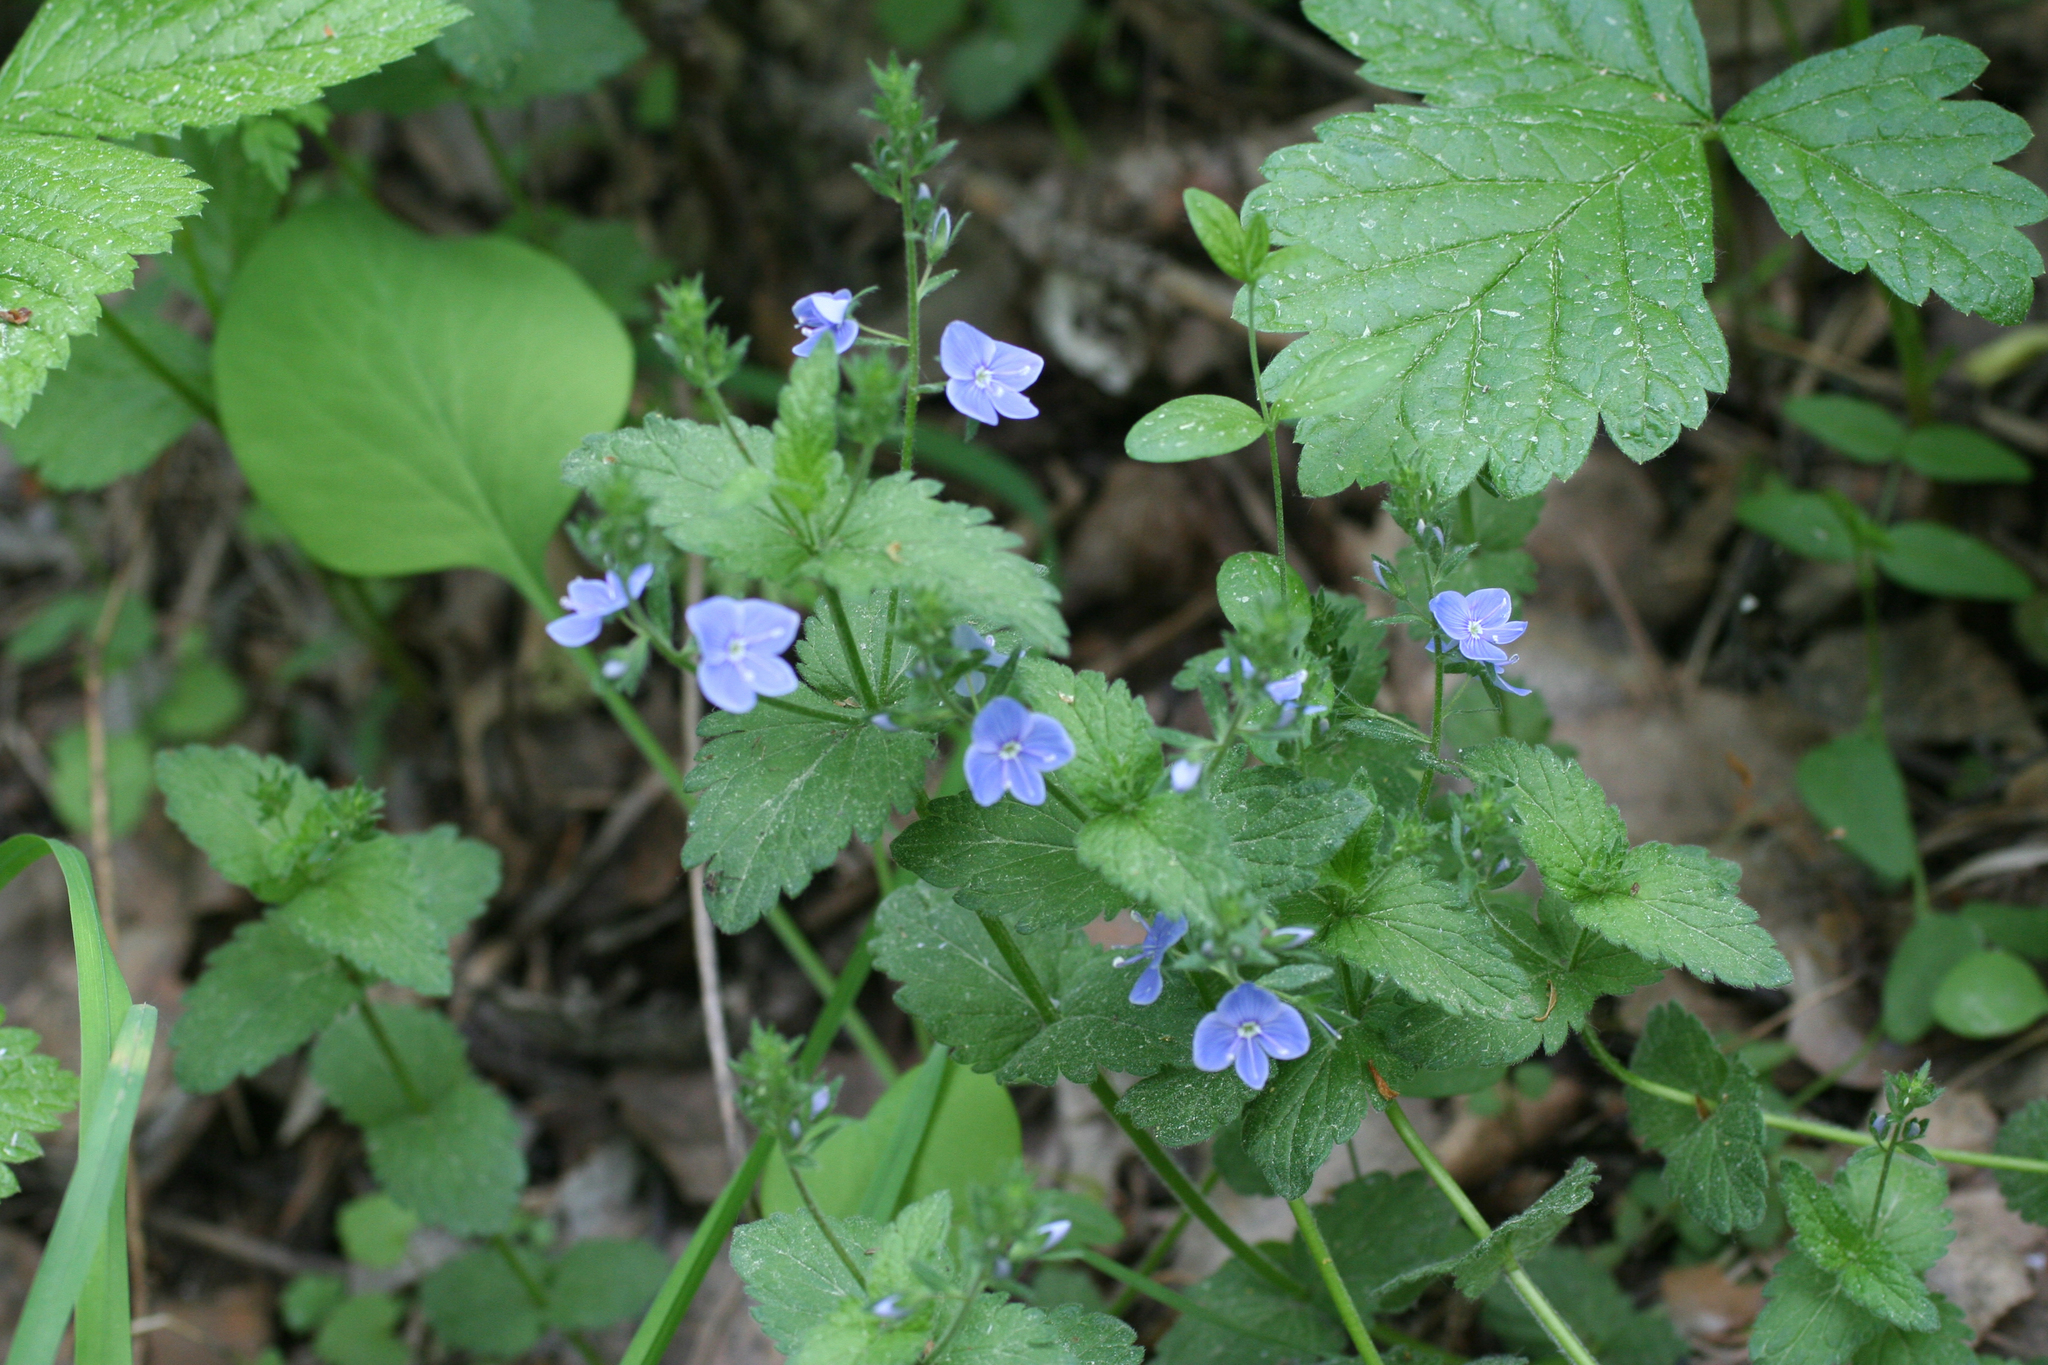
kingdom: Plantae
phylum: Tracheophyta
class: Magnoliopsida
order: Lamiales
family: Plantaginaceae
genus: Veronica
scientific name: Veronica chamaedrys
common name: Germander speedwell
